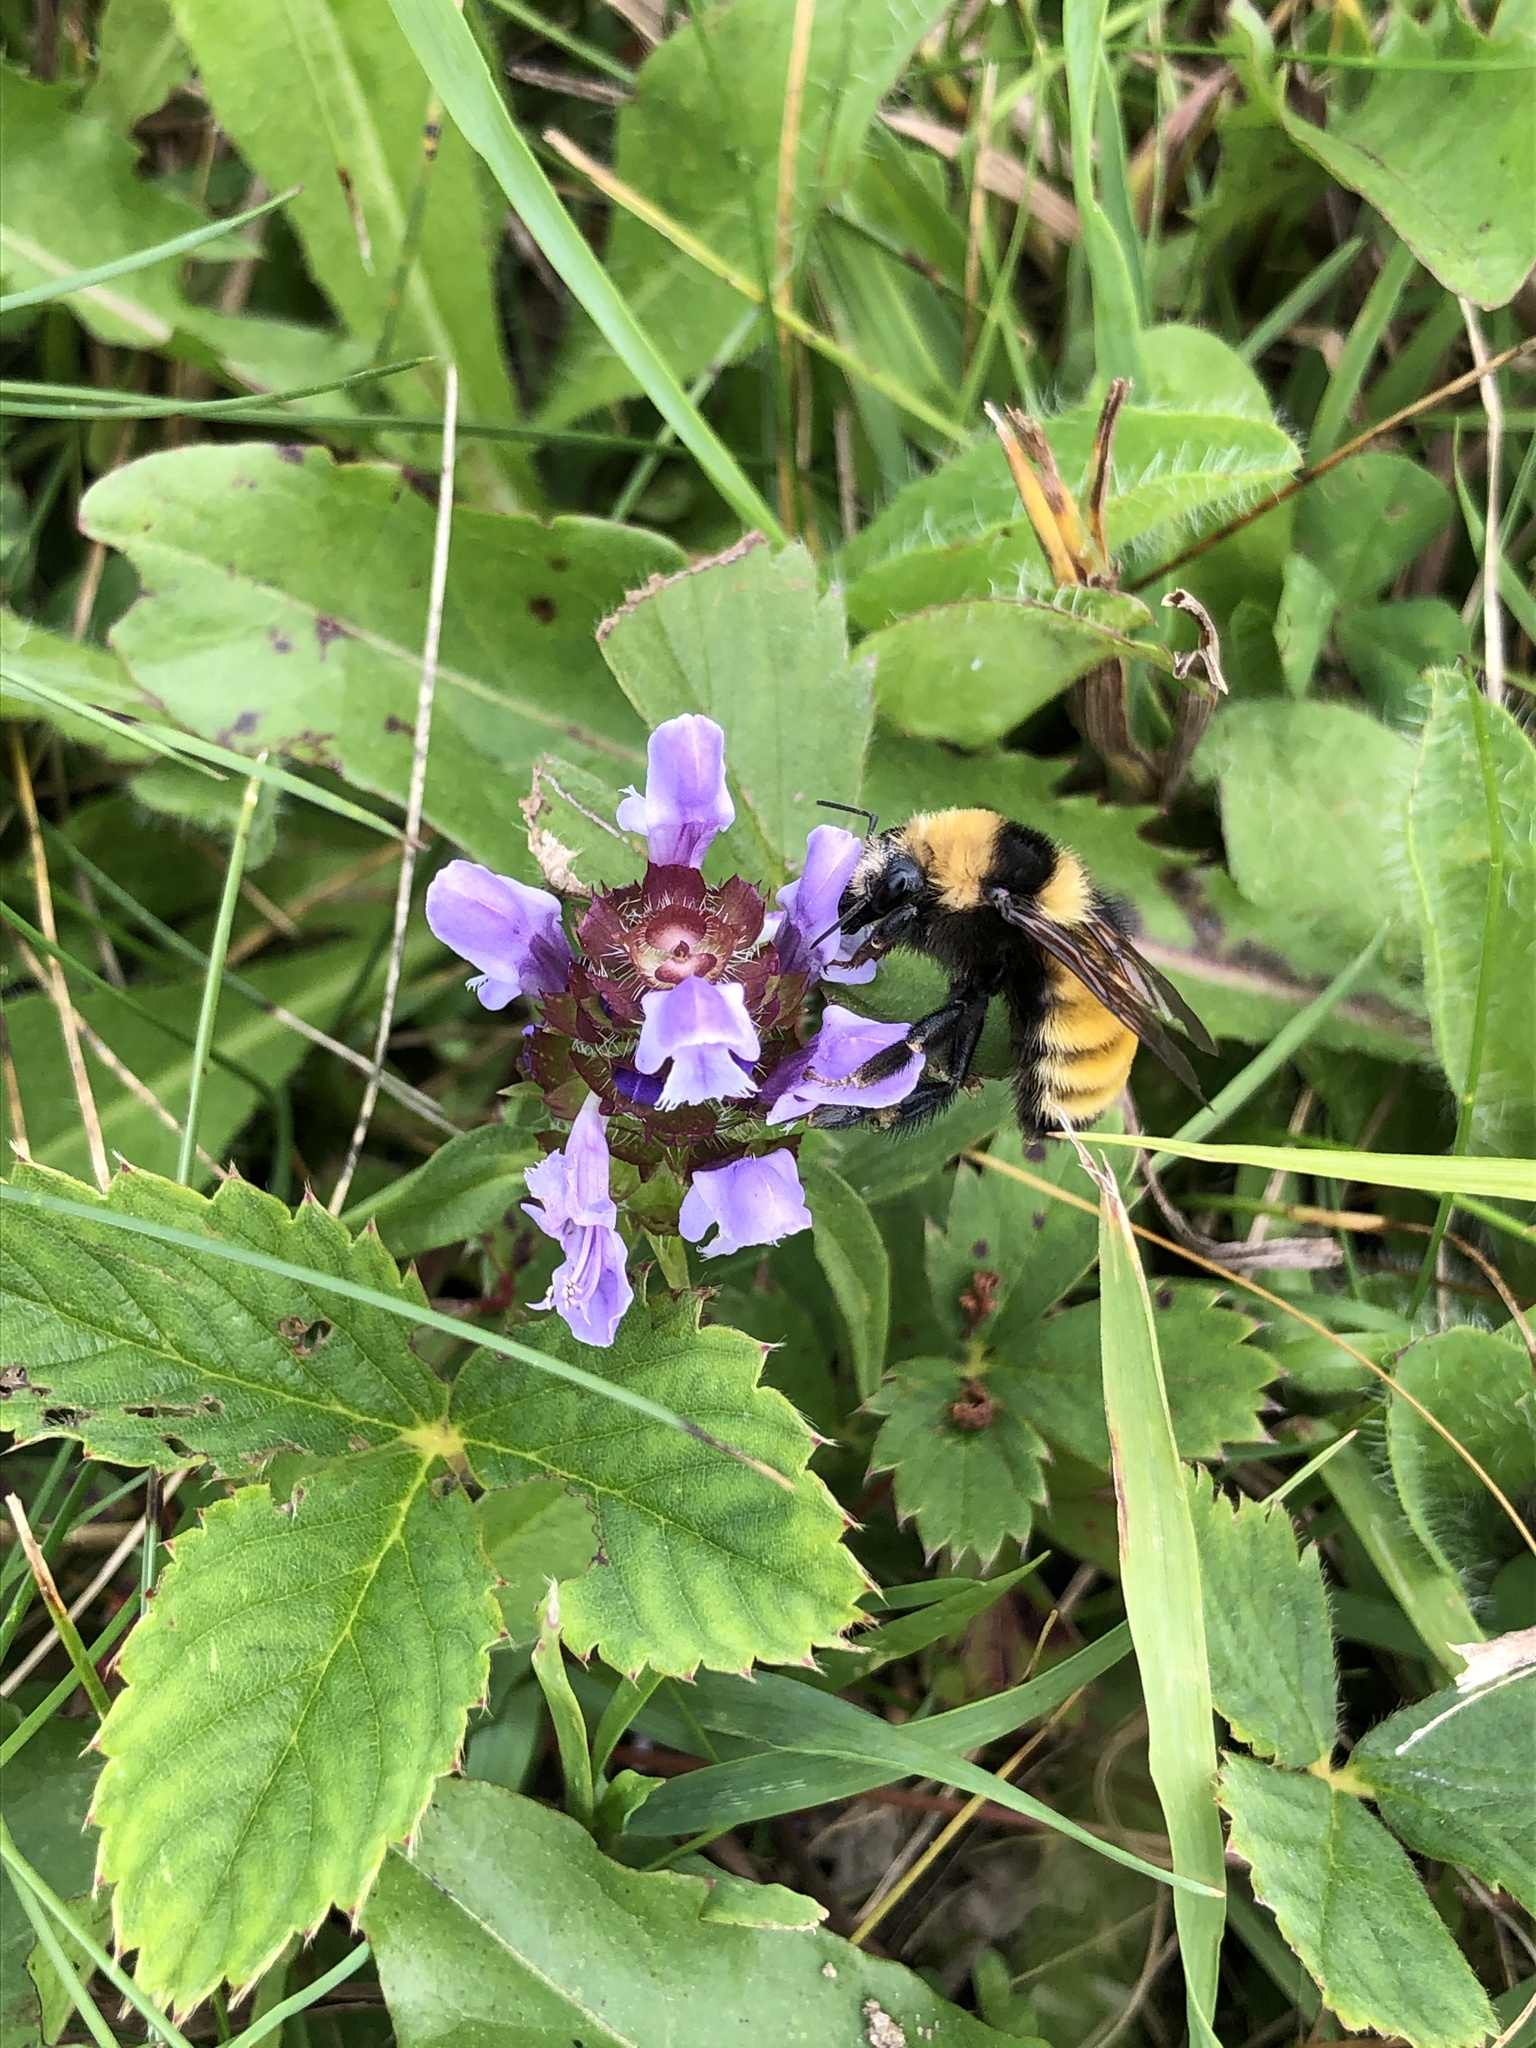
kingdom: Animalia
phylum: Arthropoda
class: Insecta
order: Hymenoptera
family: Apidae
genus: Bombus
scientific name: Bombus borealis
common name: Northern amber bumble bee
